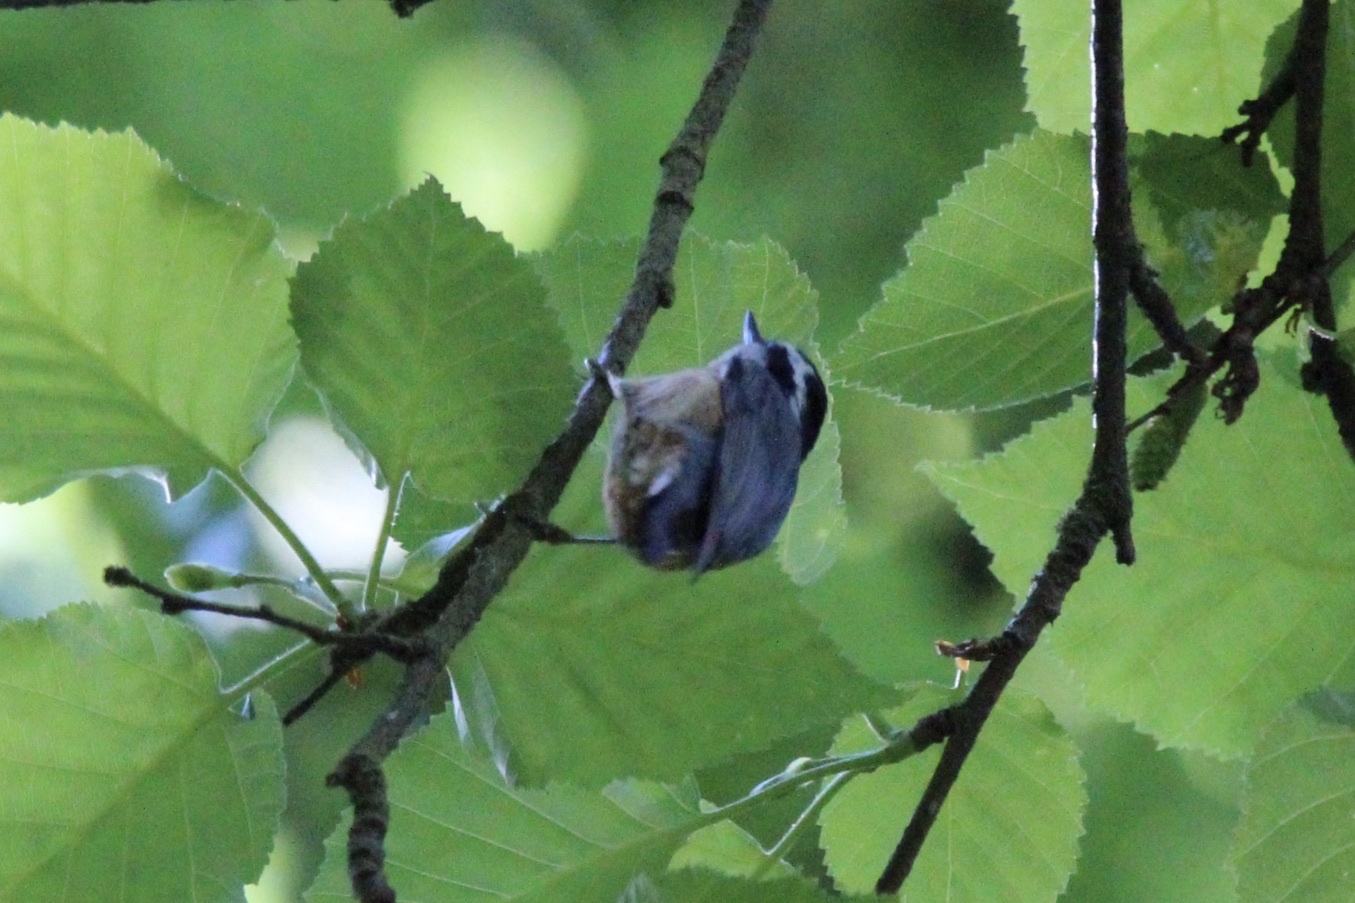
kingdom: Animalia
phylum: Chordata
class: Aves
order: Passeriformes
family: Sittidae
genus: Sitta
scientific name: Sitta canadensis
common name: Red-breasted nuthatch
